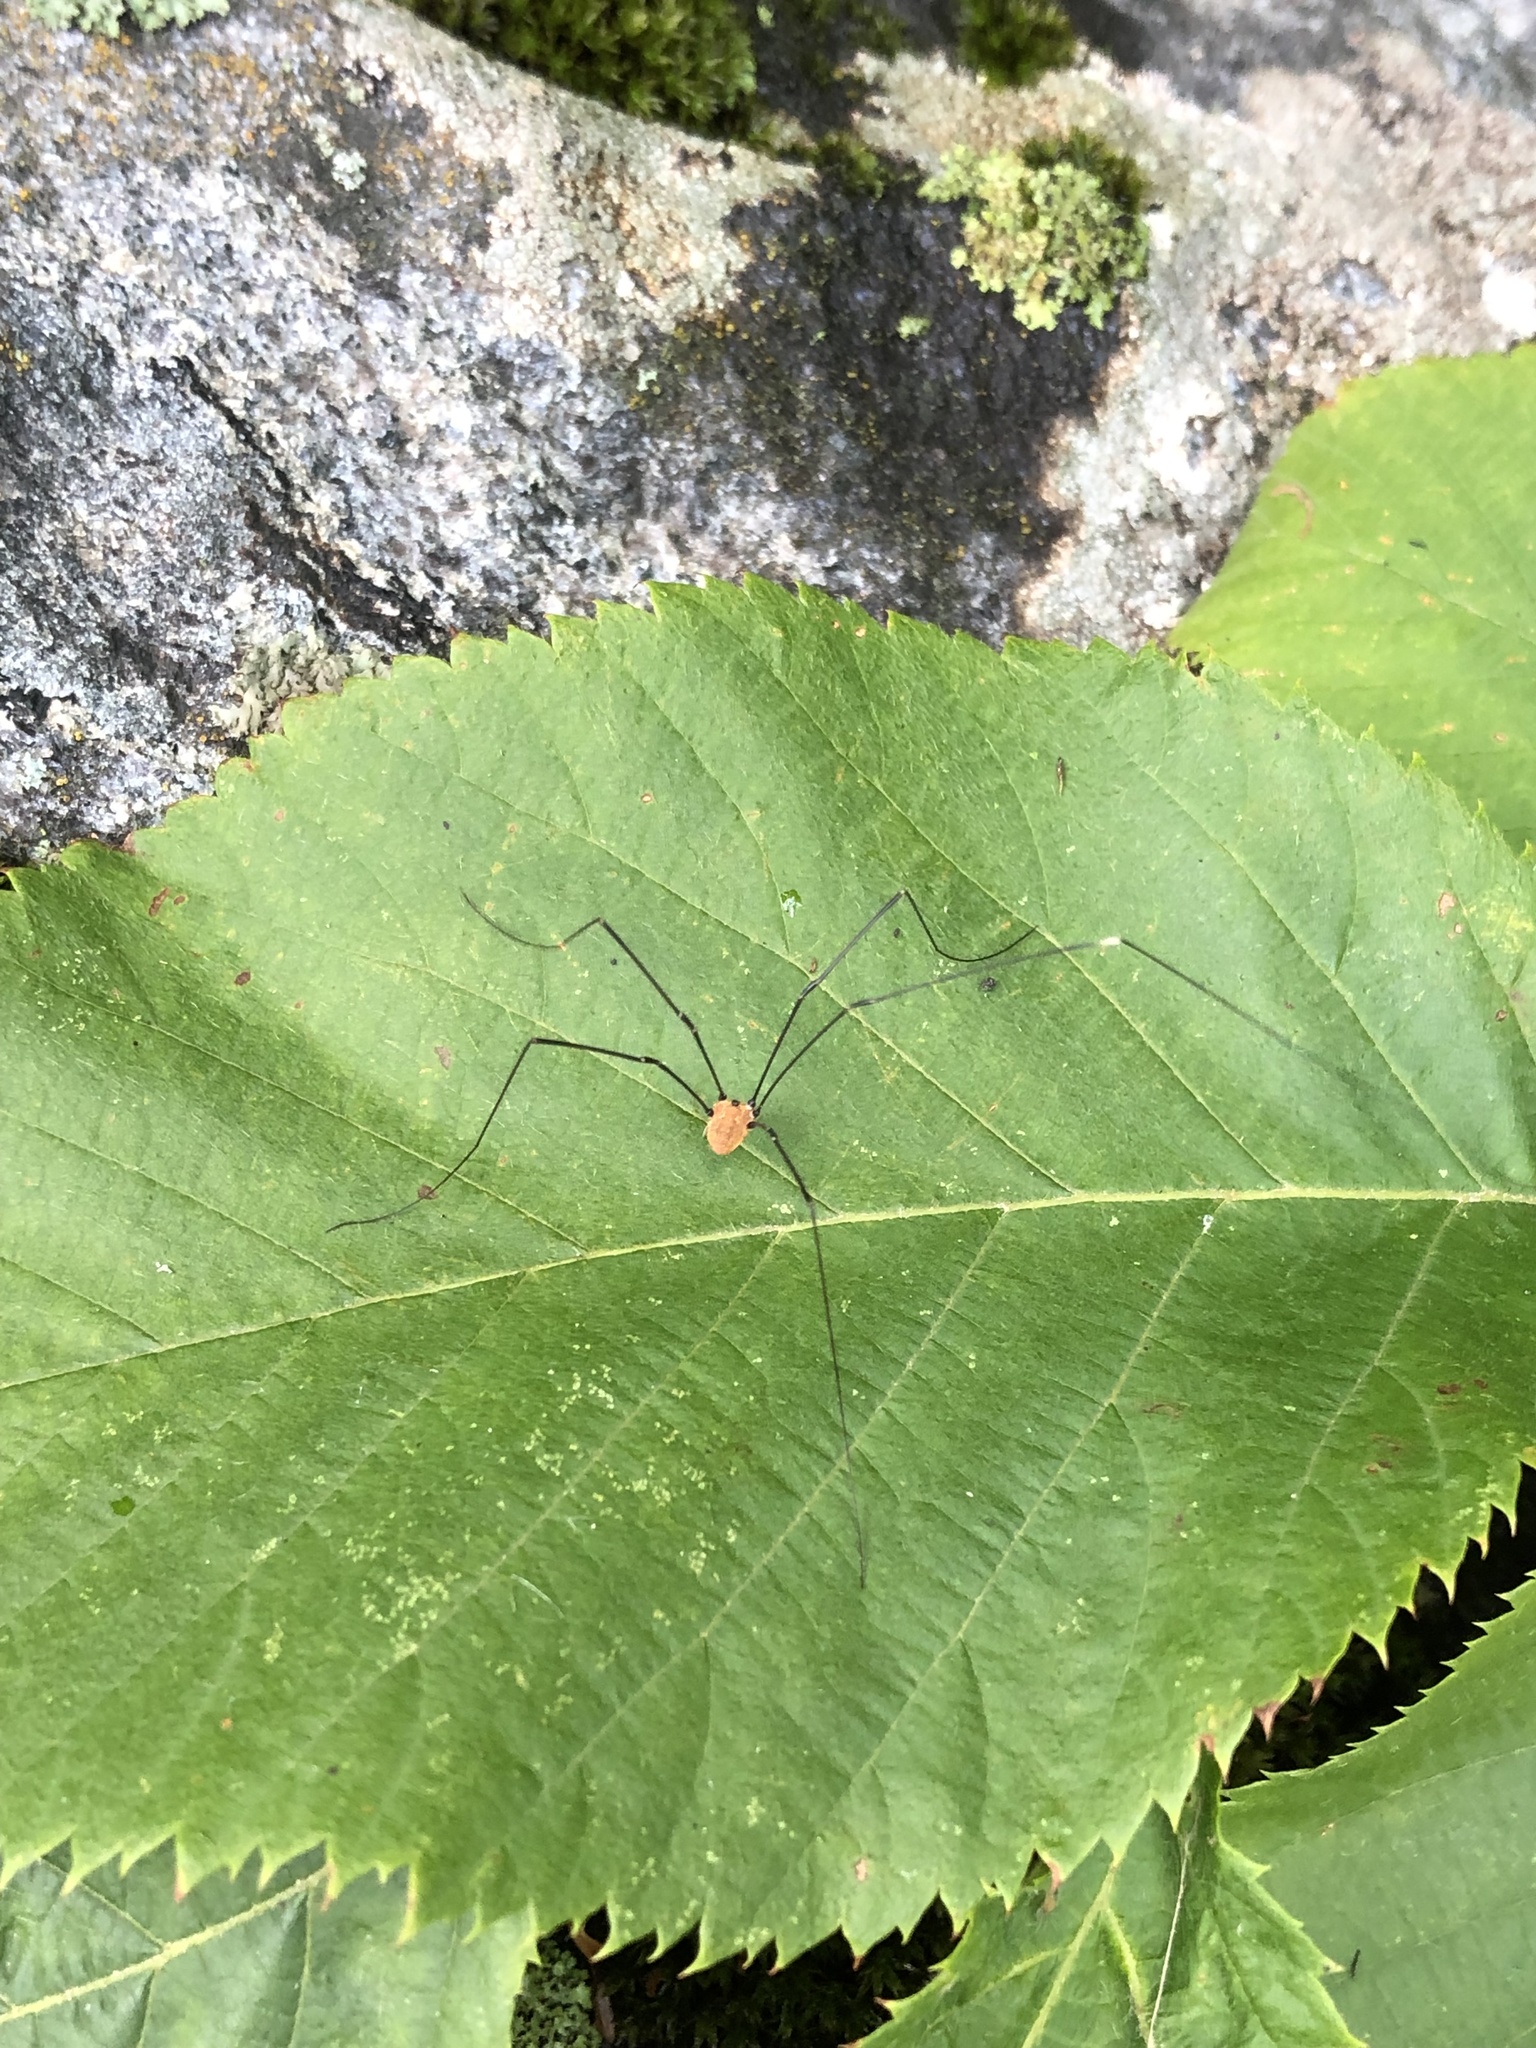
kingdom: Animalia
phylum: Arthropoda
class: Arachnida
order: Opiliones
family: Sclerosomatidae
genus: Leiobunum
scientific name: Leiobunum aldrichi
